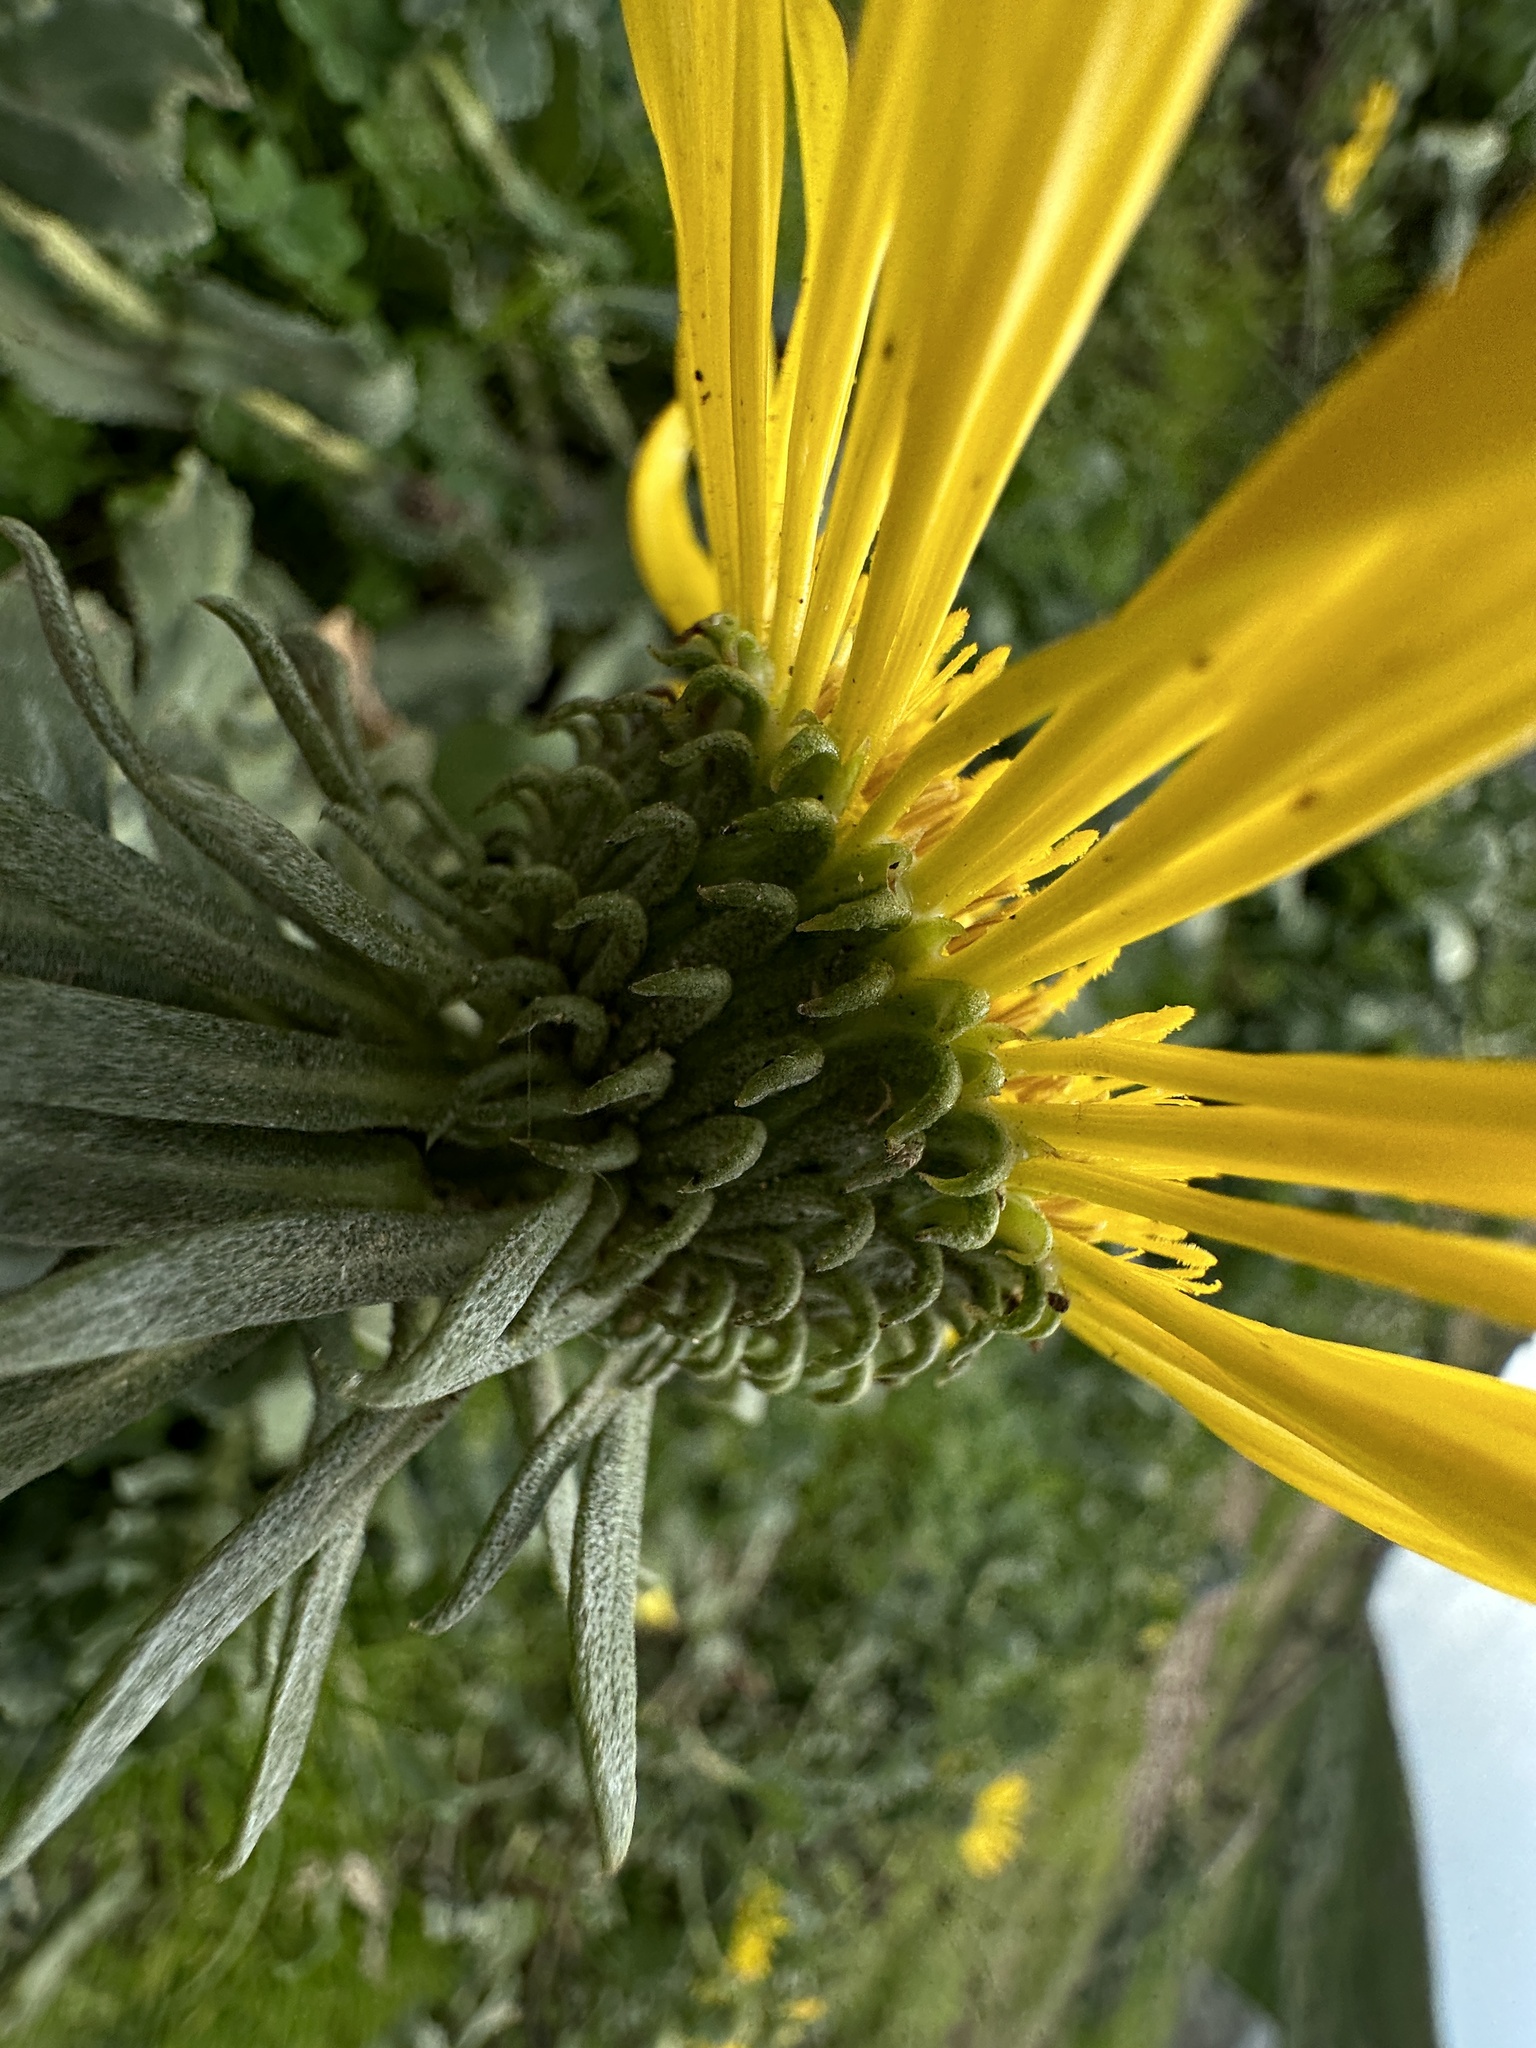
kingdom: Plantae
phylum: Tracheophyta
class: Magnoliopsida
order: Asterales
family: Asteraceae
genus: Grindelia
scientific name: Grindelia hirsutula
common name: Hairy gumweed
